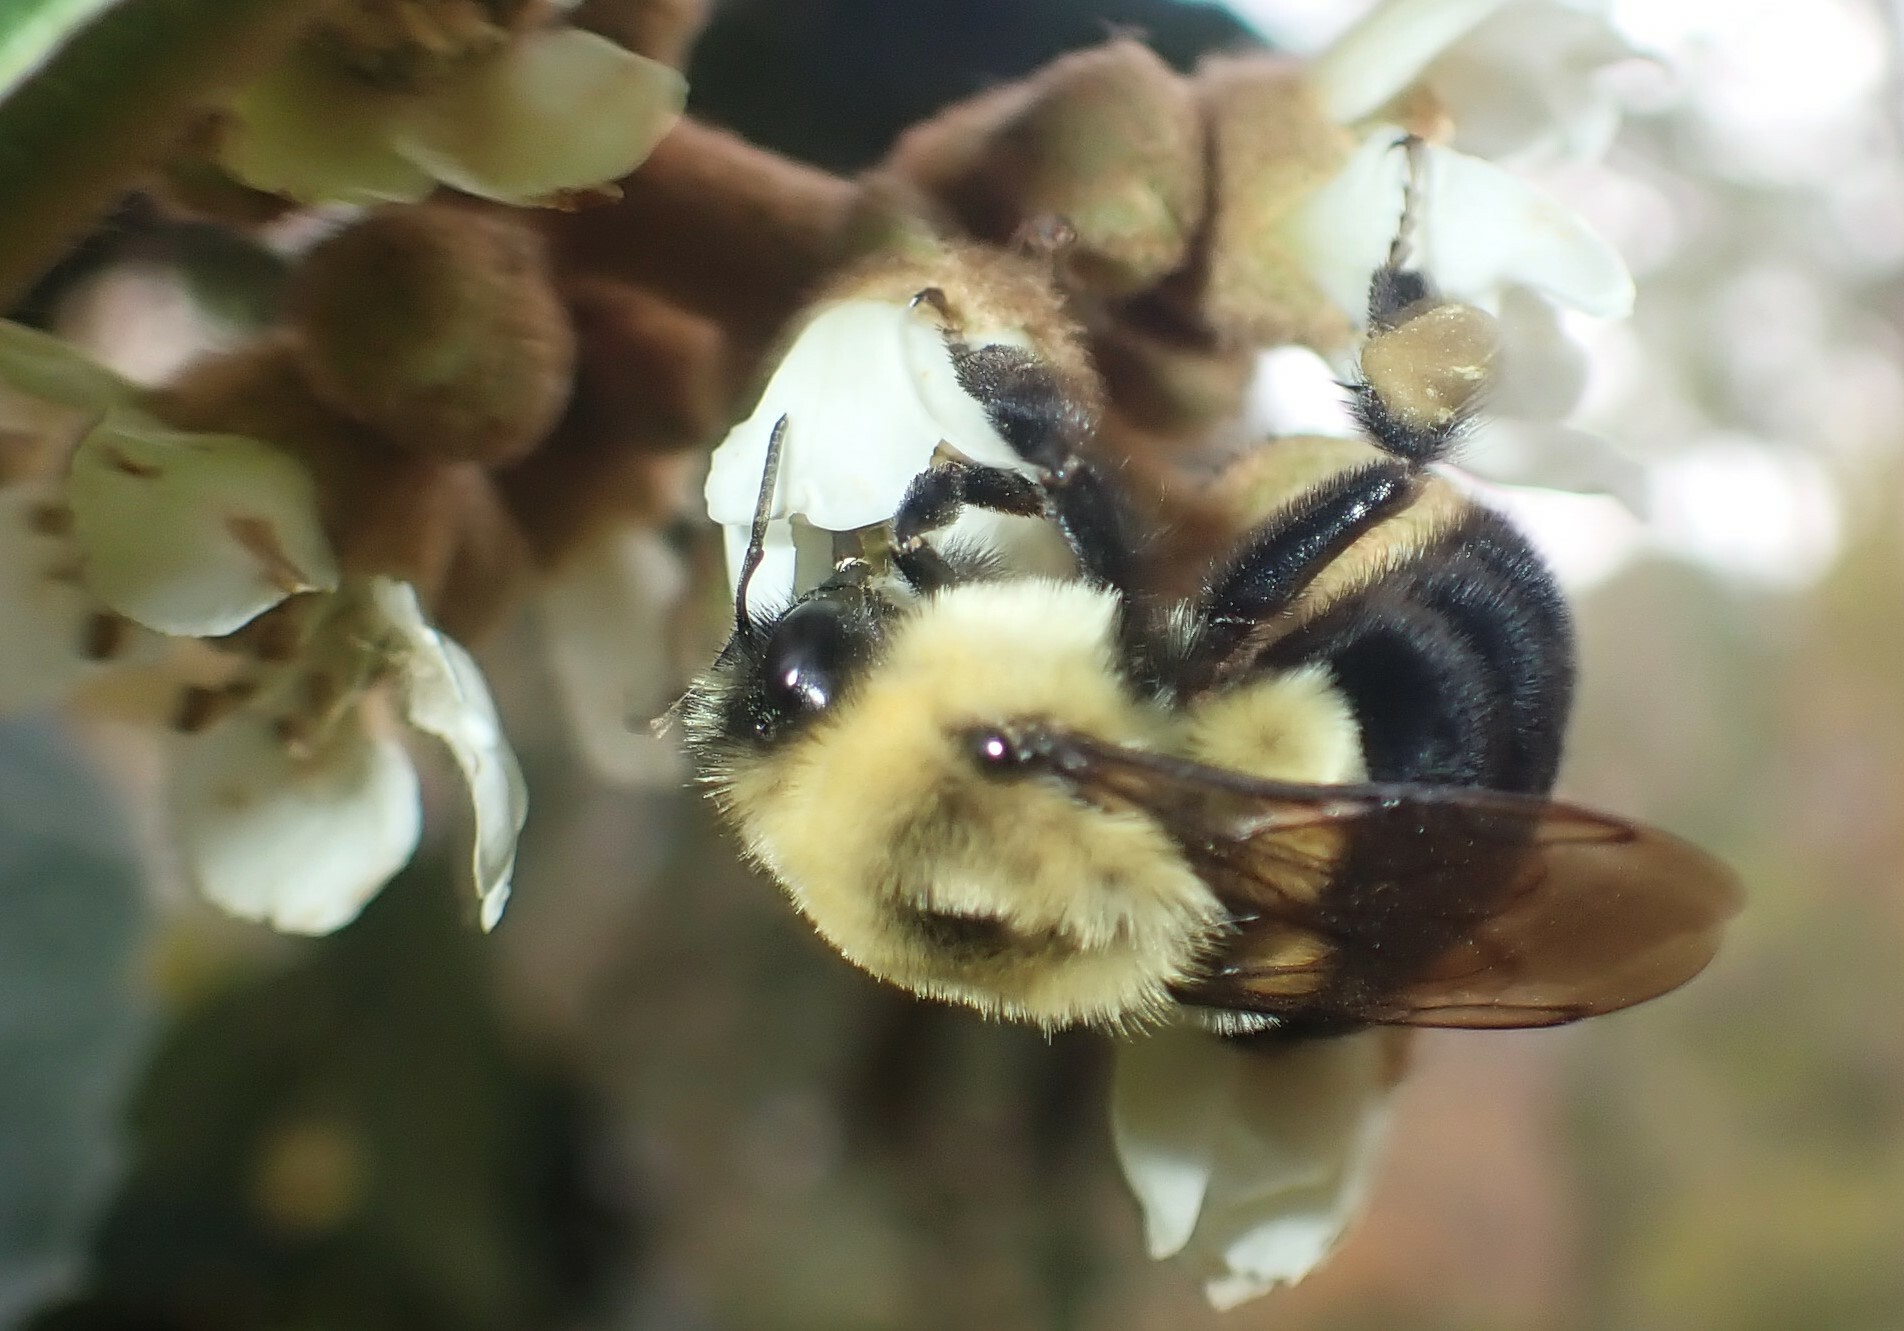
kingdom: Animalia
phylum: Arthropoda
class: Insecta
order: Hymenoptera
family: Apidae
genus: Bombus
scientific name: Bombus impatiens
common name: Common eastern bumble bee
